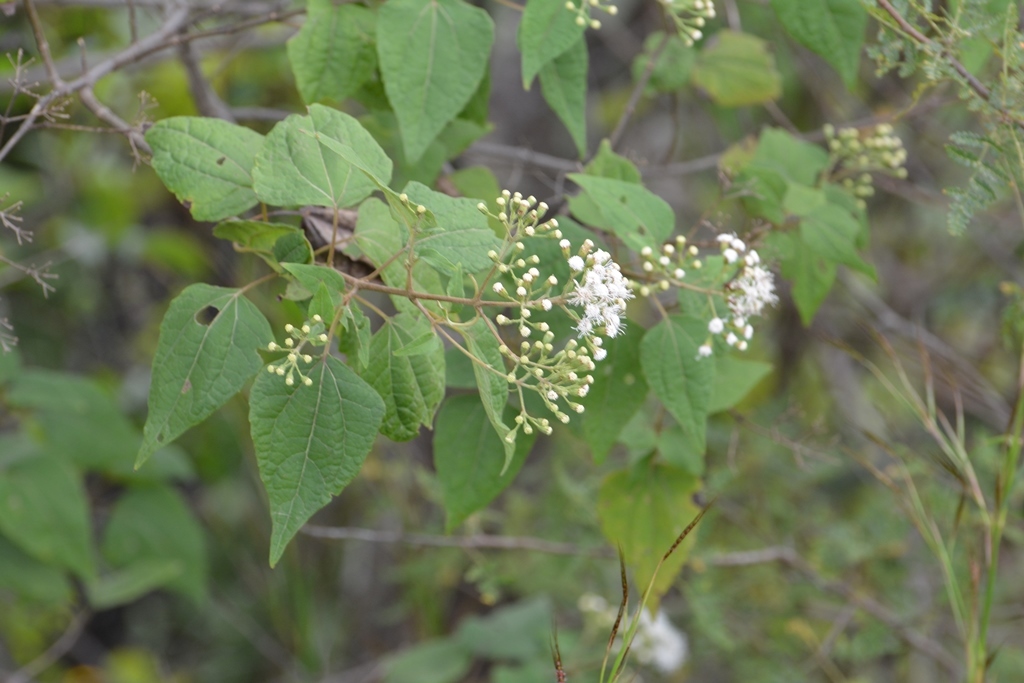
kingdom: Plantae
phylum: Tracheophyta
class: Magnoliopsida
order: Asterales
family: Asteraceae
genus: Ageratina
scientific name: Ageratina pichinchensis
